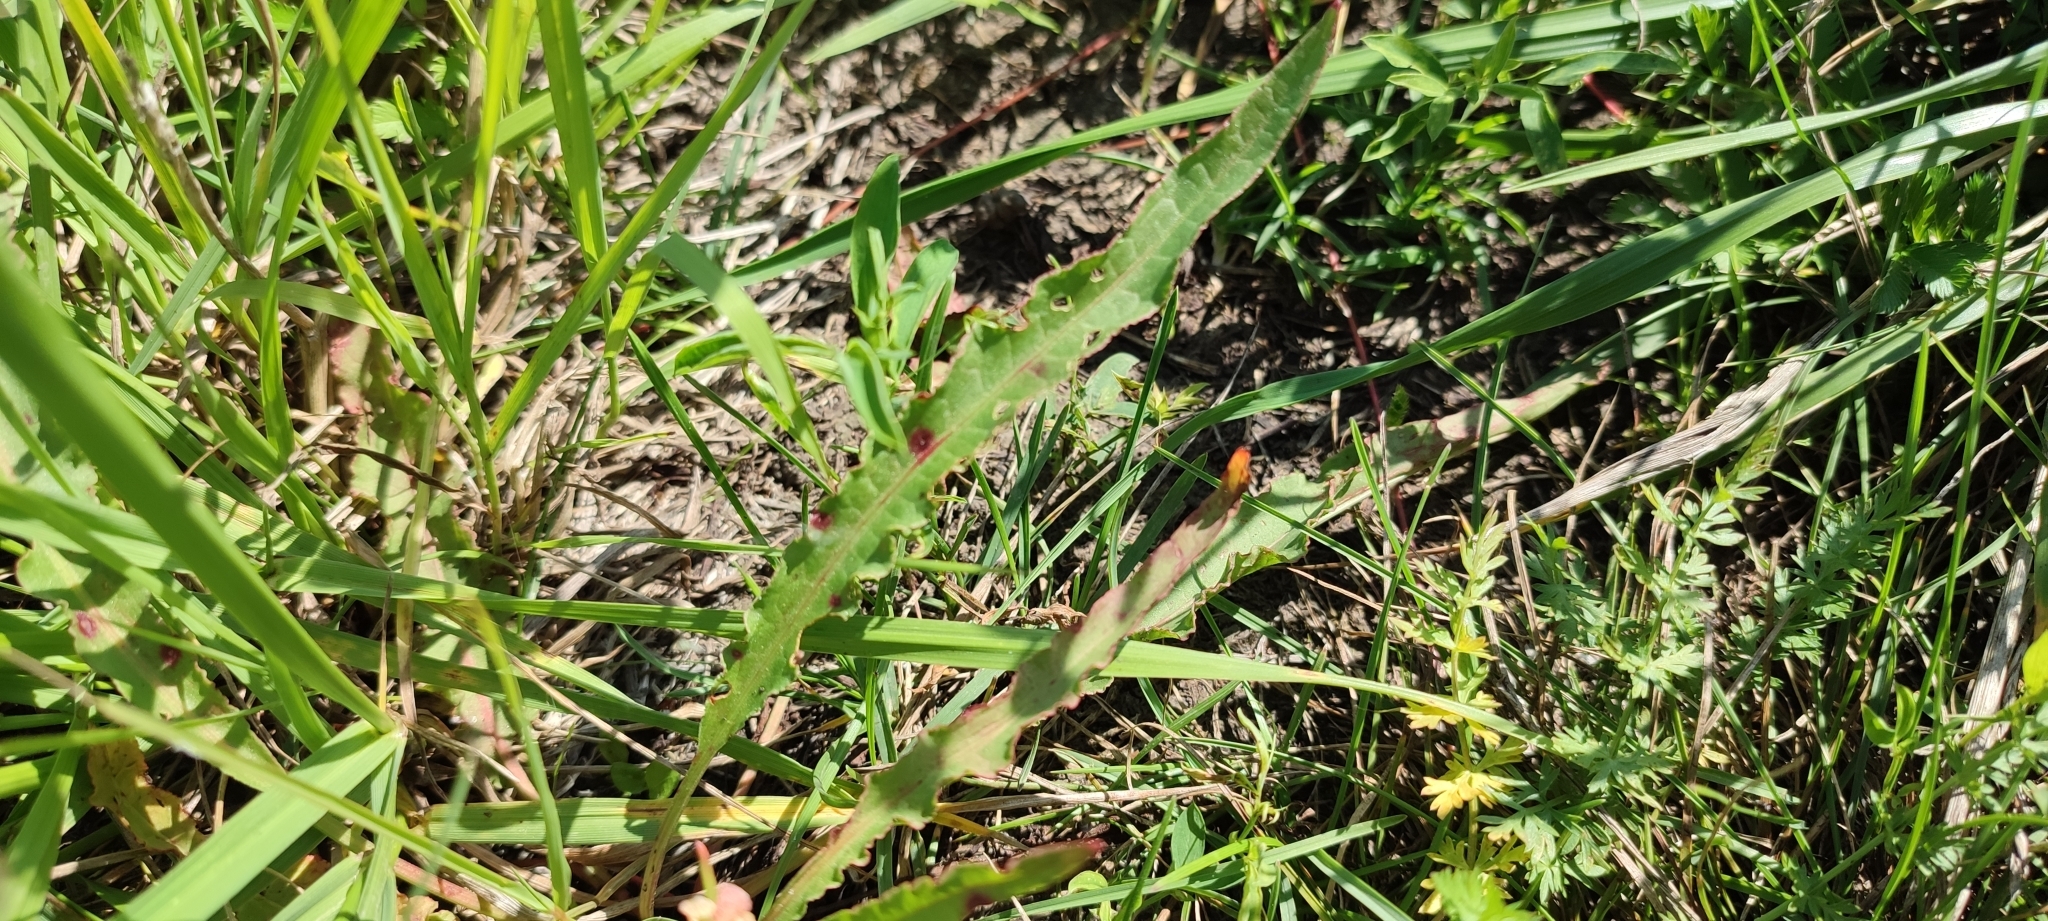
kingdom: Plantae
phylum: Tracheophyta
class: Magnoliopsida
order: Caryophyllales
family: Polygonaceae
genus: Rumex
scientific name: Rumex pseudonatronatus
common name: Field dock
